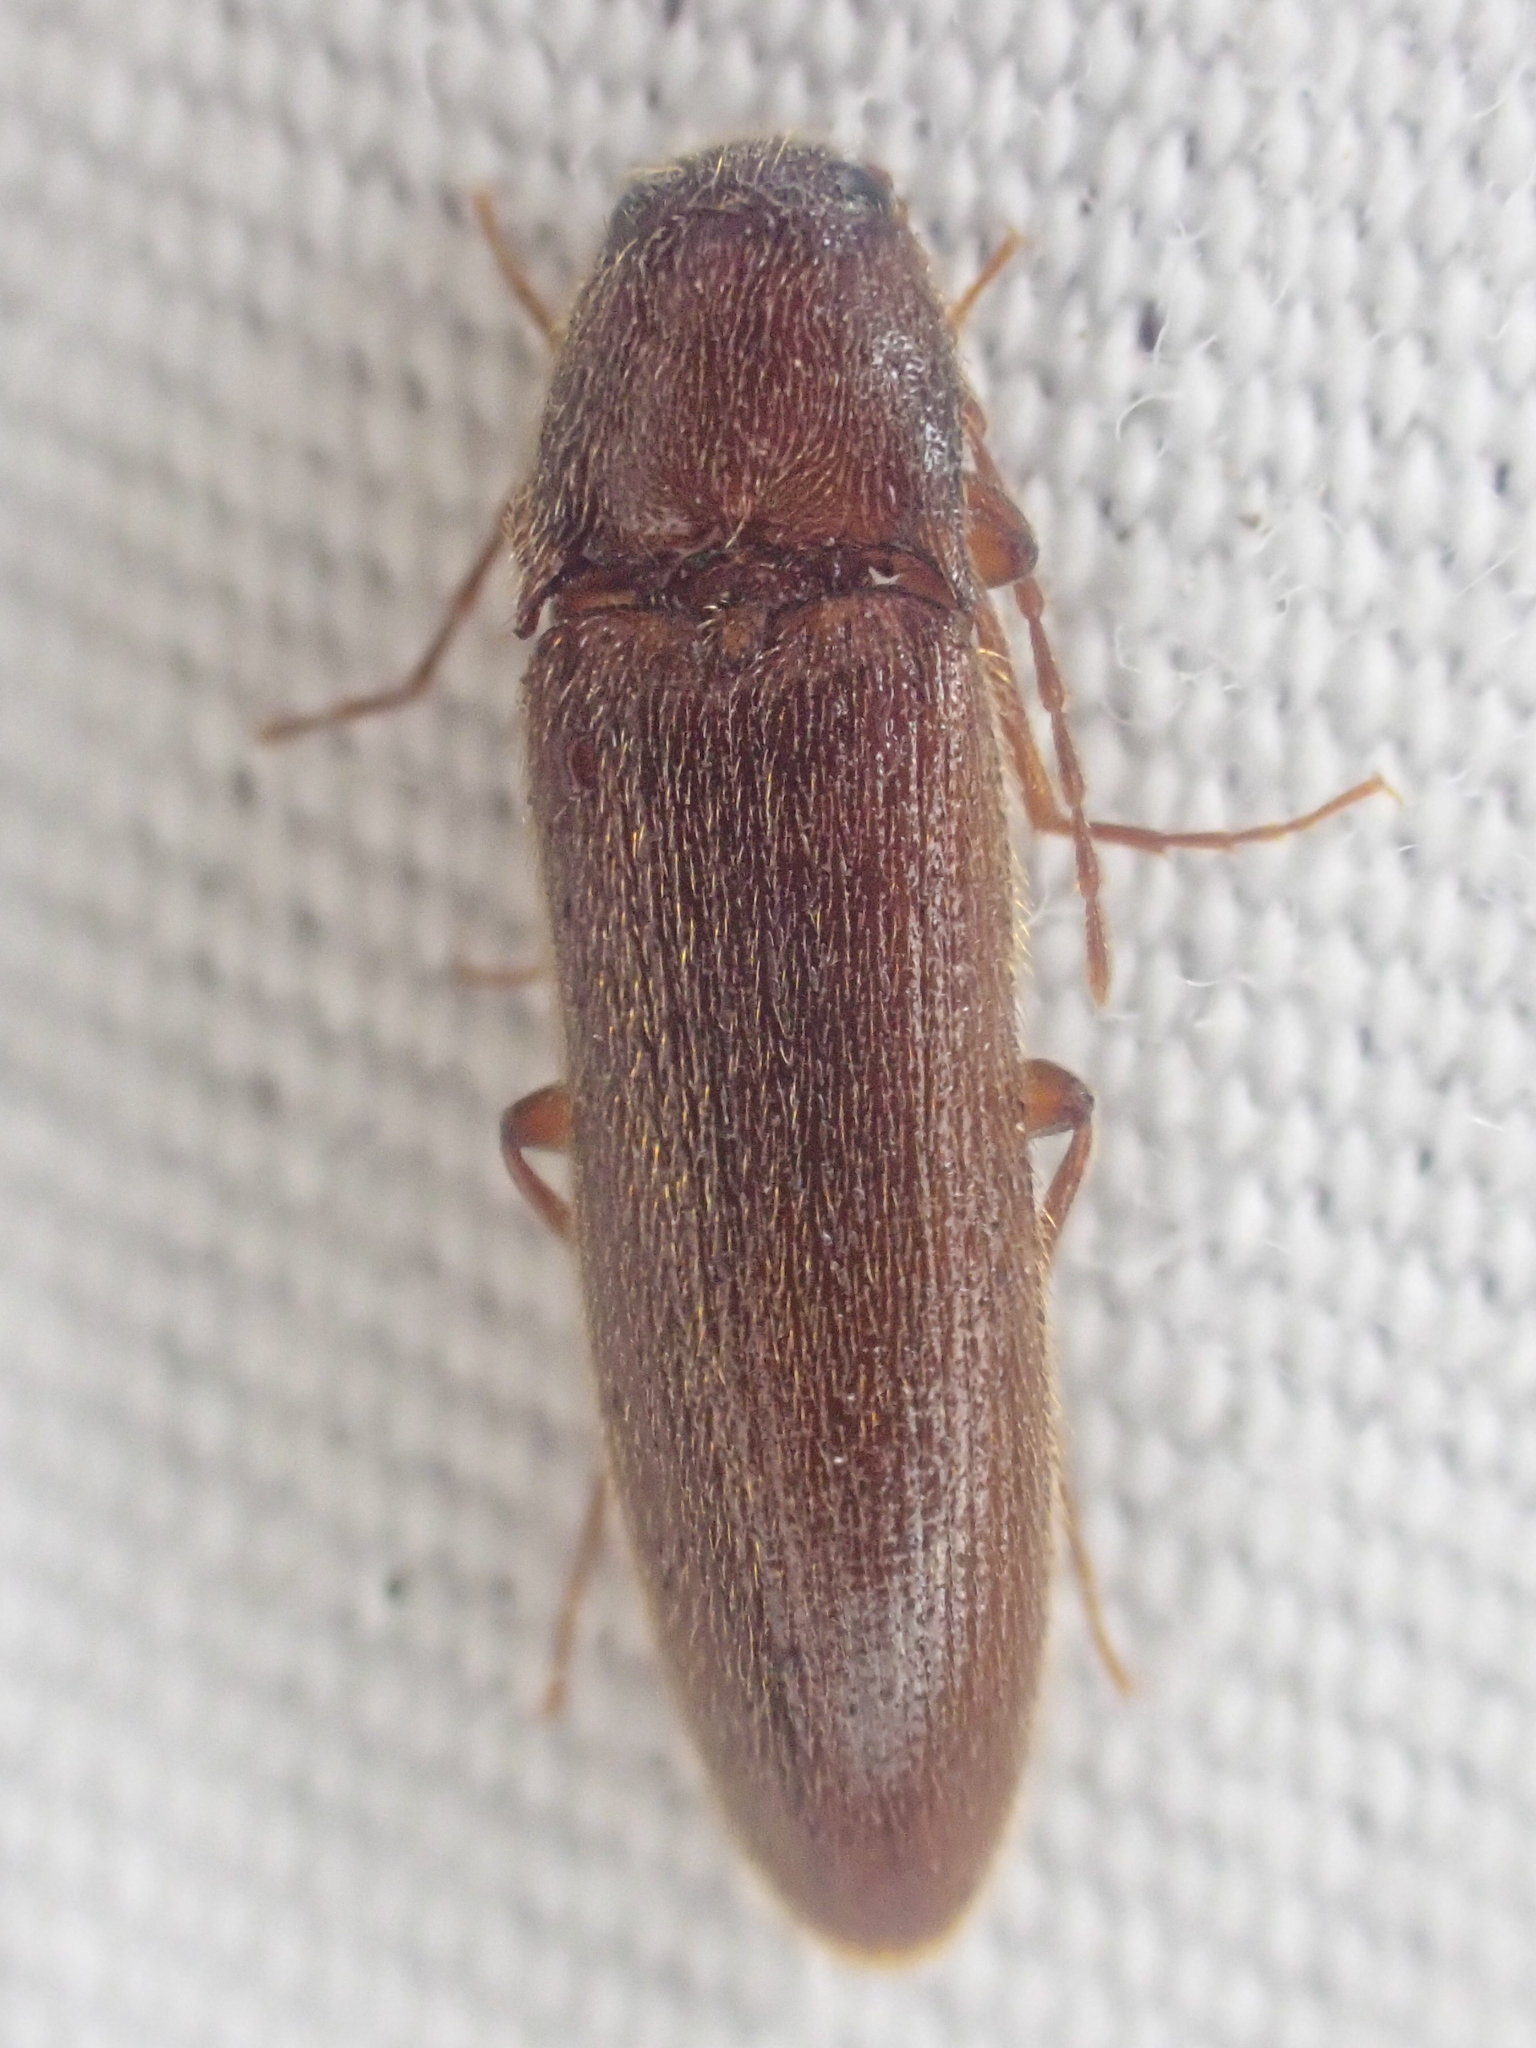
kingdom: Animalia
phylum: Arthropoda
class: Insecta
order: Coleoptera
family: Elateridae
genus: Ampedus
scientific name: Ampedus
